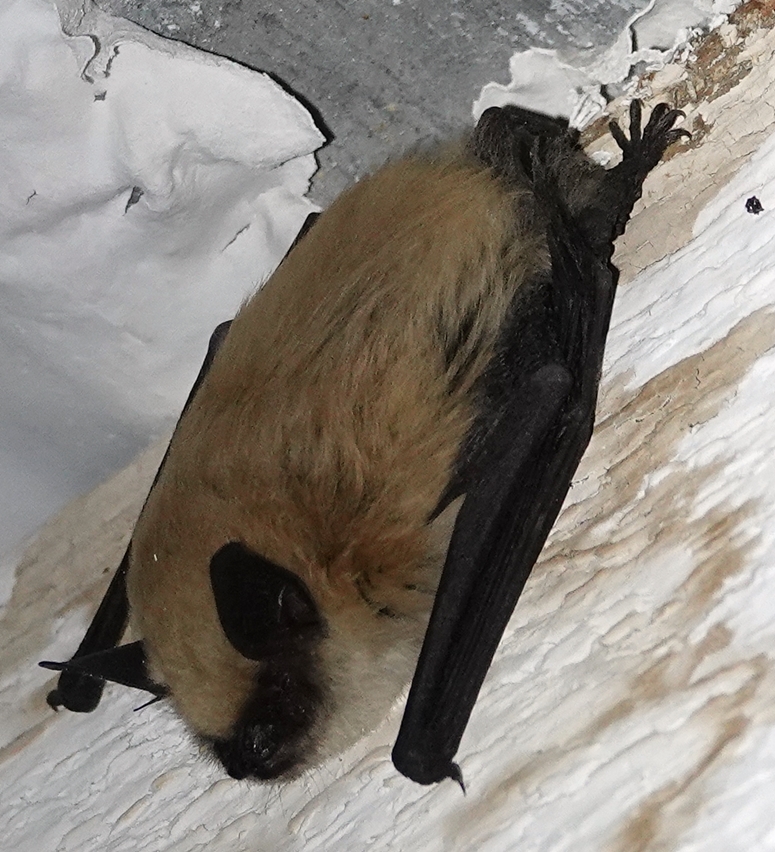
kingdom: Animalia
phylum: Chordata
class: Mammalia
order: Chiroptera
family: Vespertilionidae
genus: Myotis
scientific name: Myotis ciliolabrum
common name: Western small-footed myotis
